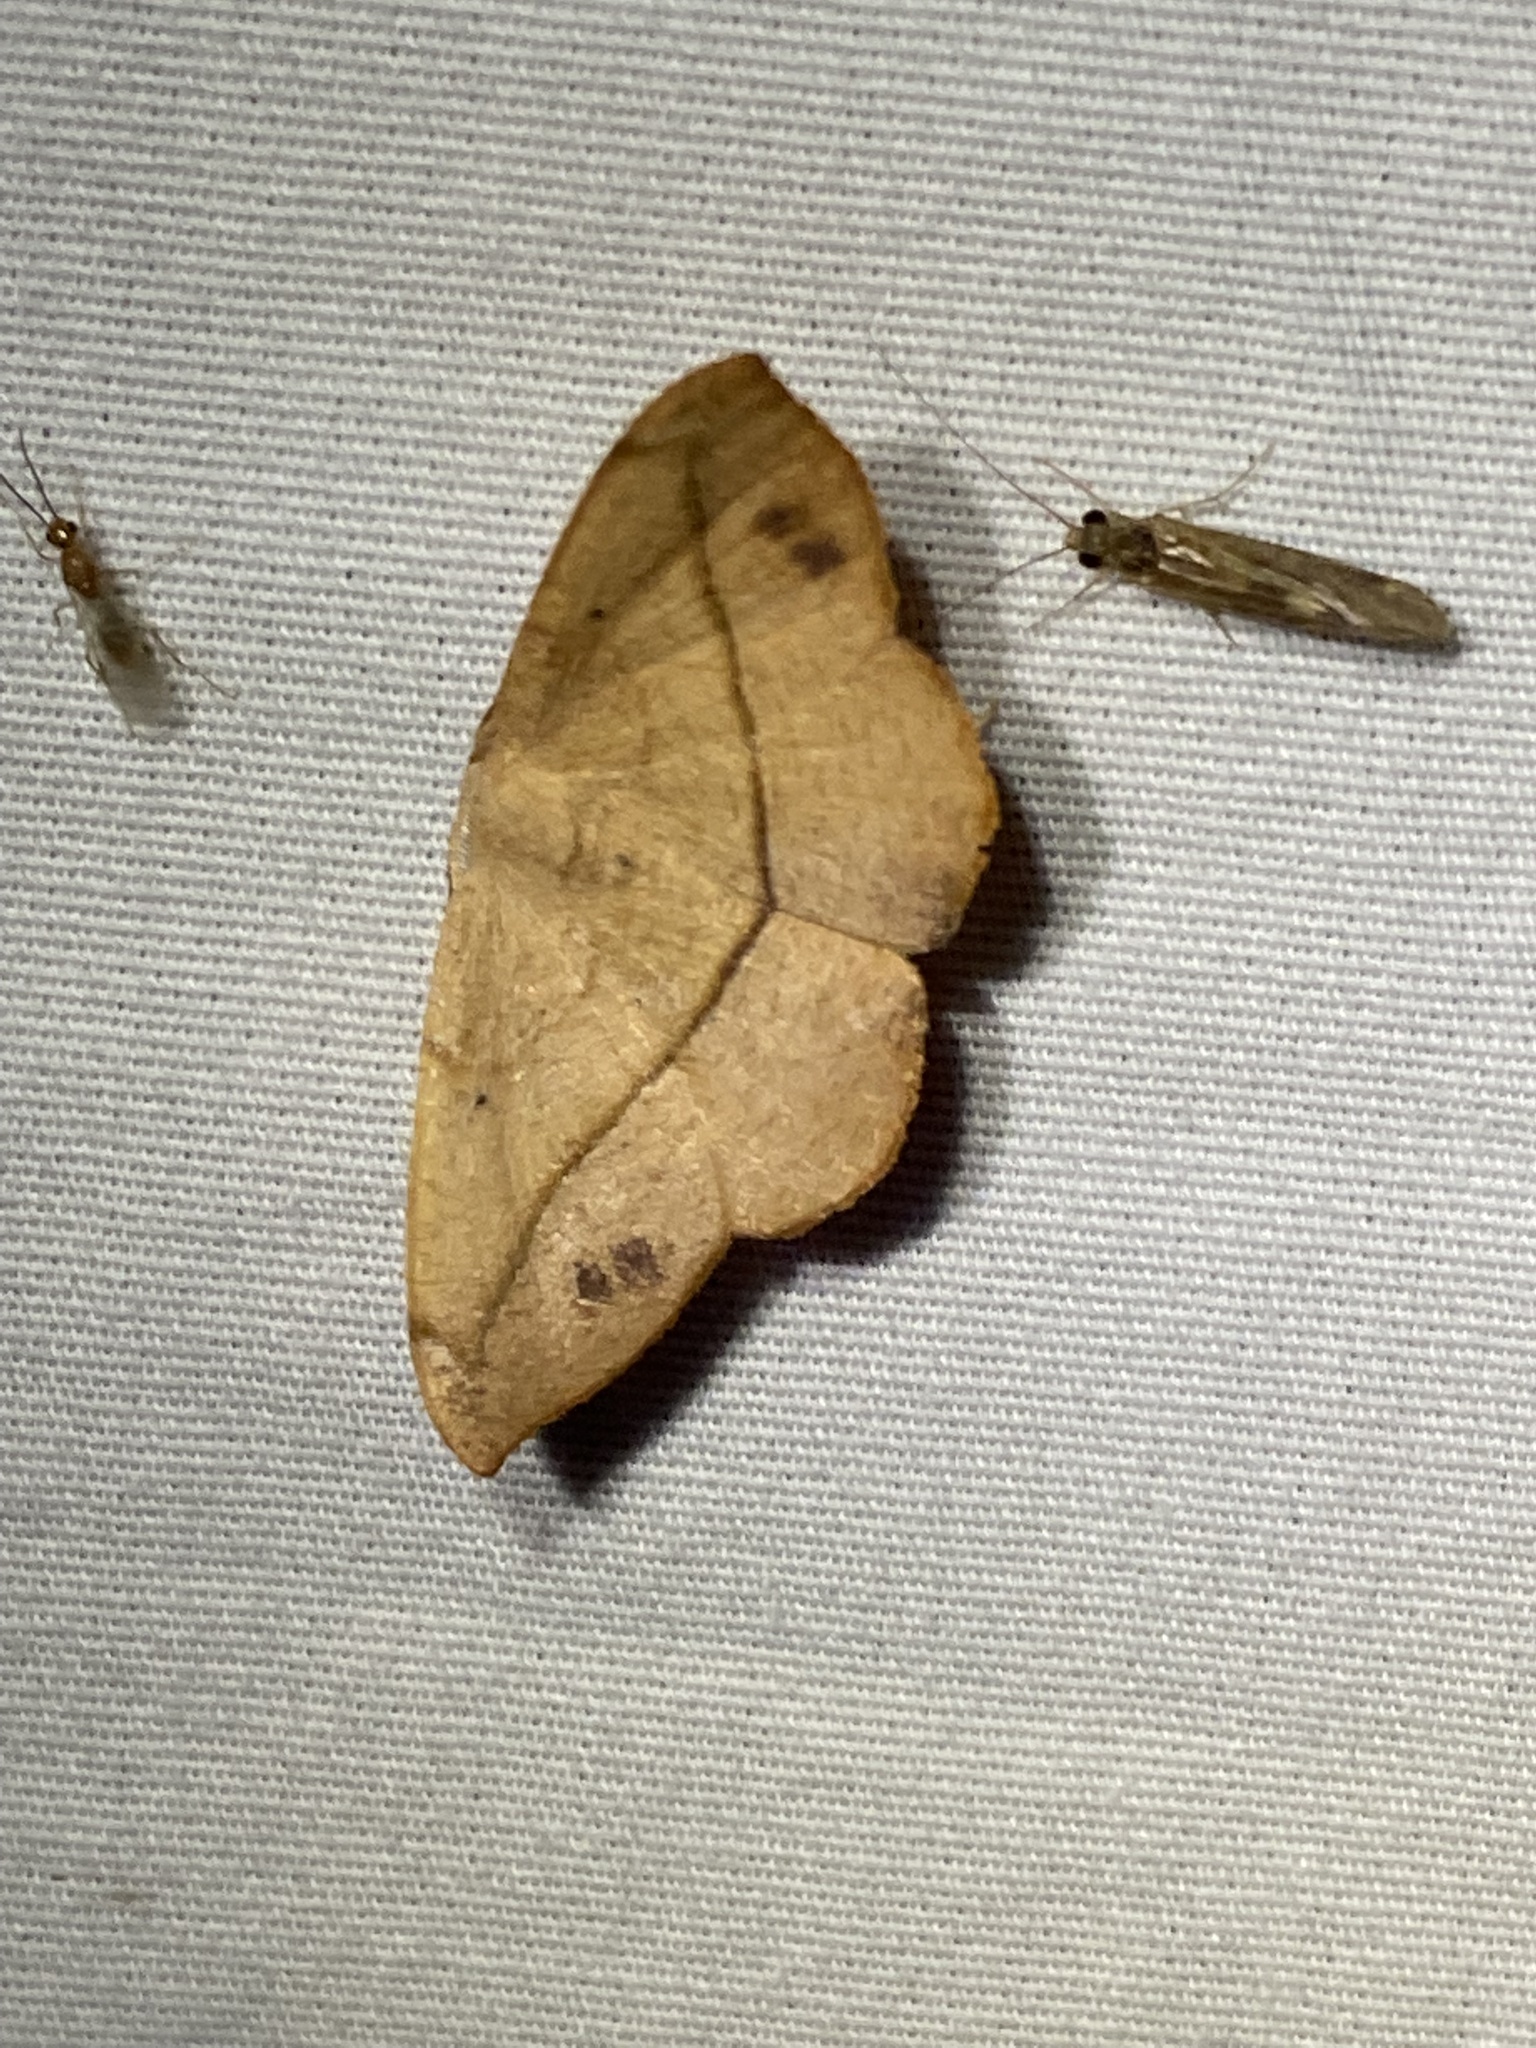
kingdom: Animalia
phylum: Arthropoda
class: Insecta
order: Lepidoptera
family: Geometridae
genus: Patalene
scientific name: Patalene olyzonaria
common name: Juniper geometer moth
